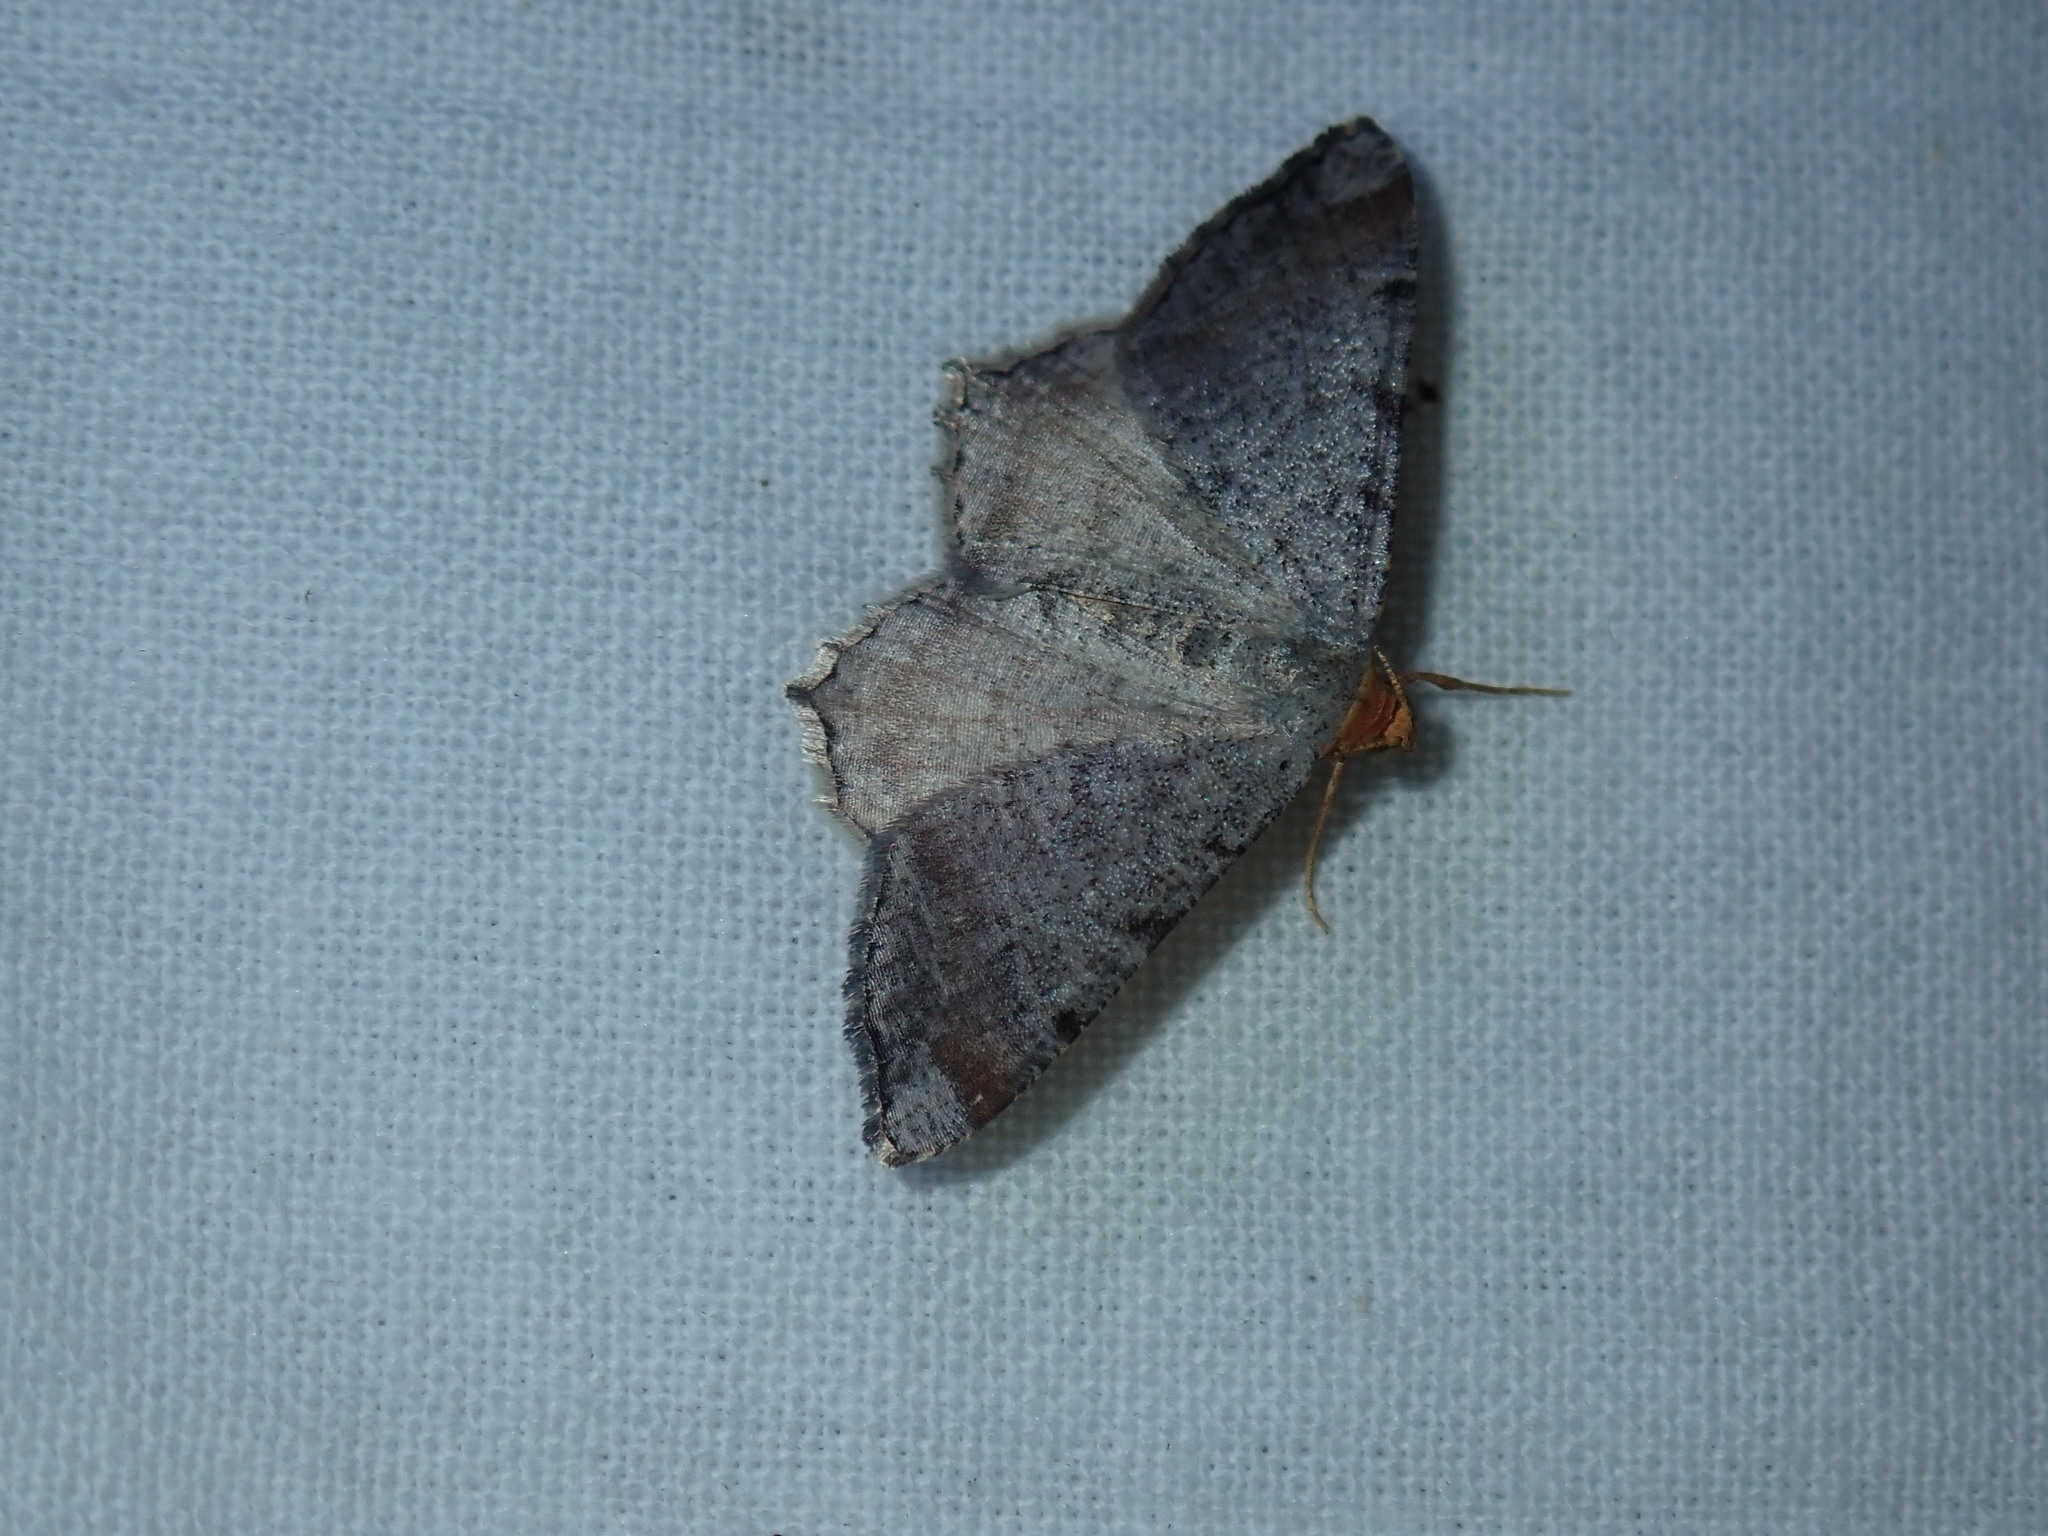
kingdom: Animalia
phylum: Arthropoda
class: Insecta
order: Lepidoptera
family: Geometridae
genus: Macaria
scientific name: Macaria minorata
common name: Minor angle moth
